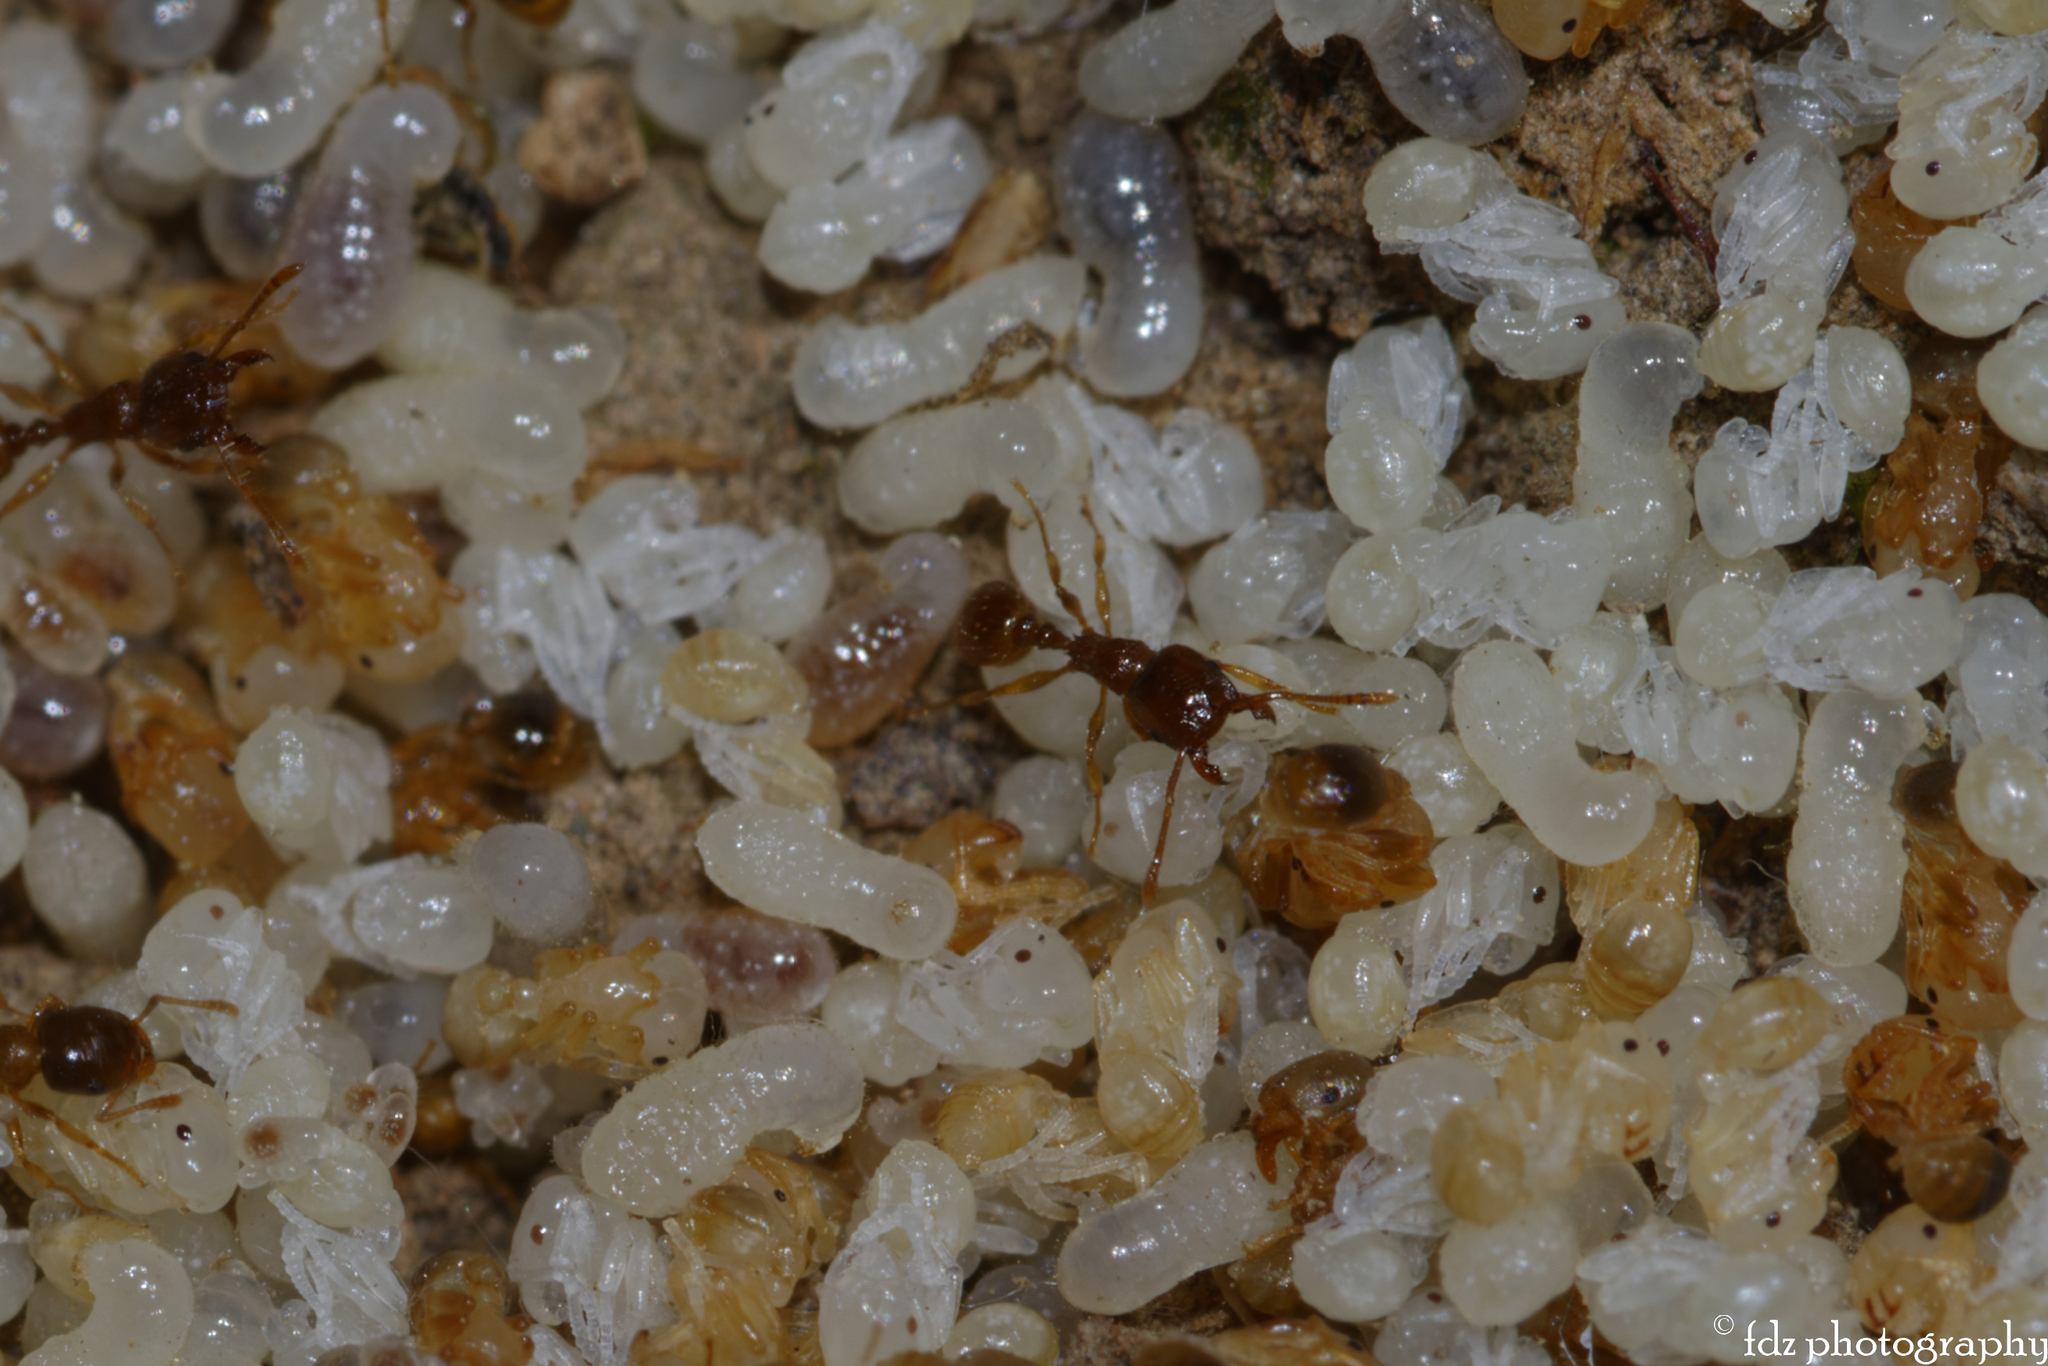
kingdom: Animalia
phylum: Arthropoda
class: Insecta
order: Hymenoptera
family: Formicidae
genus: Pheidole
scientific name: Pheidole pallidula
